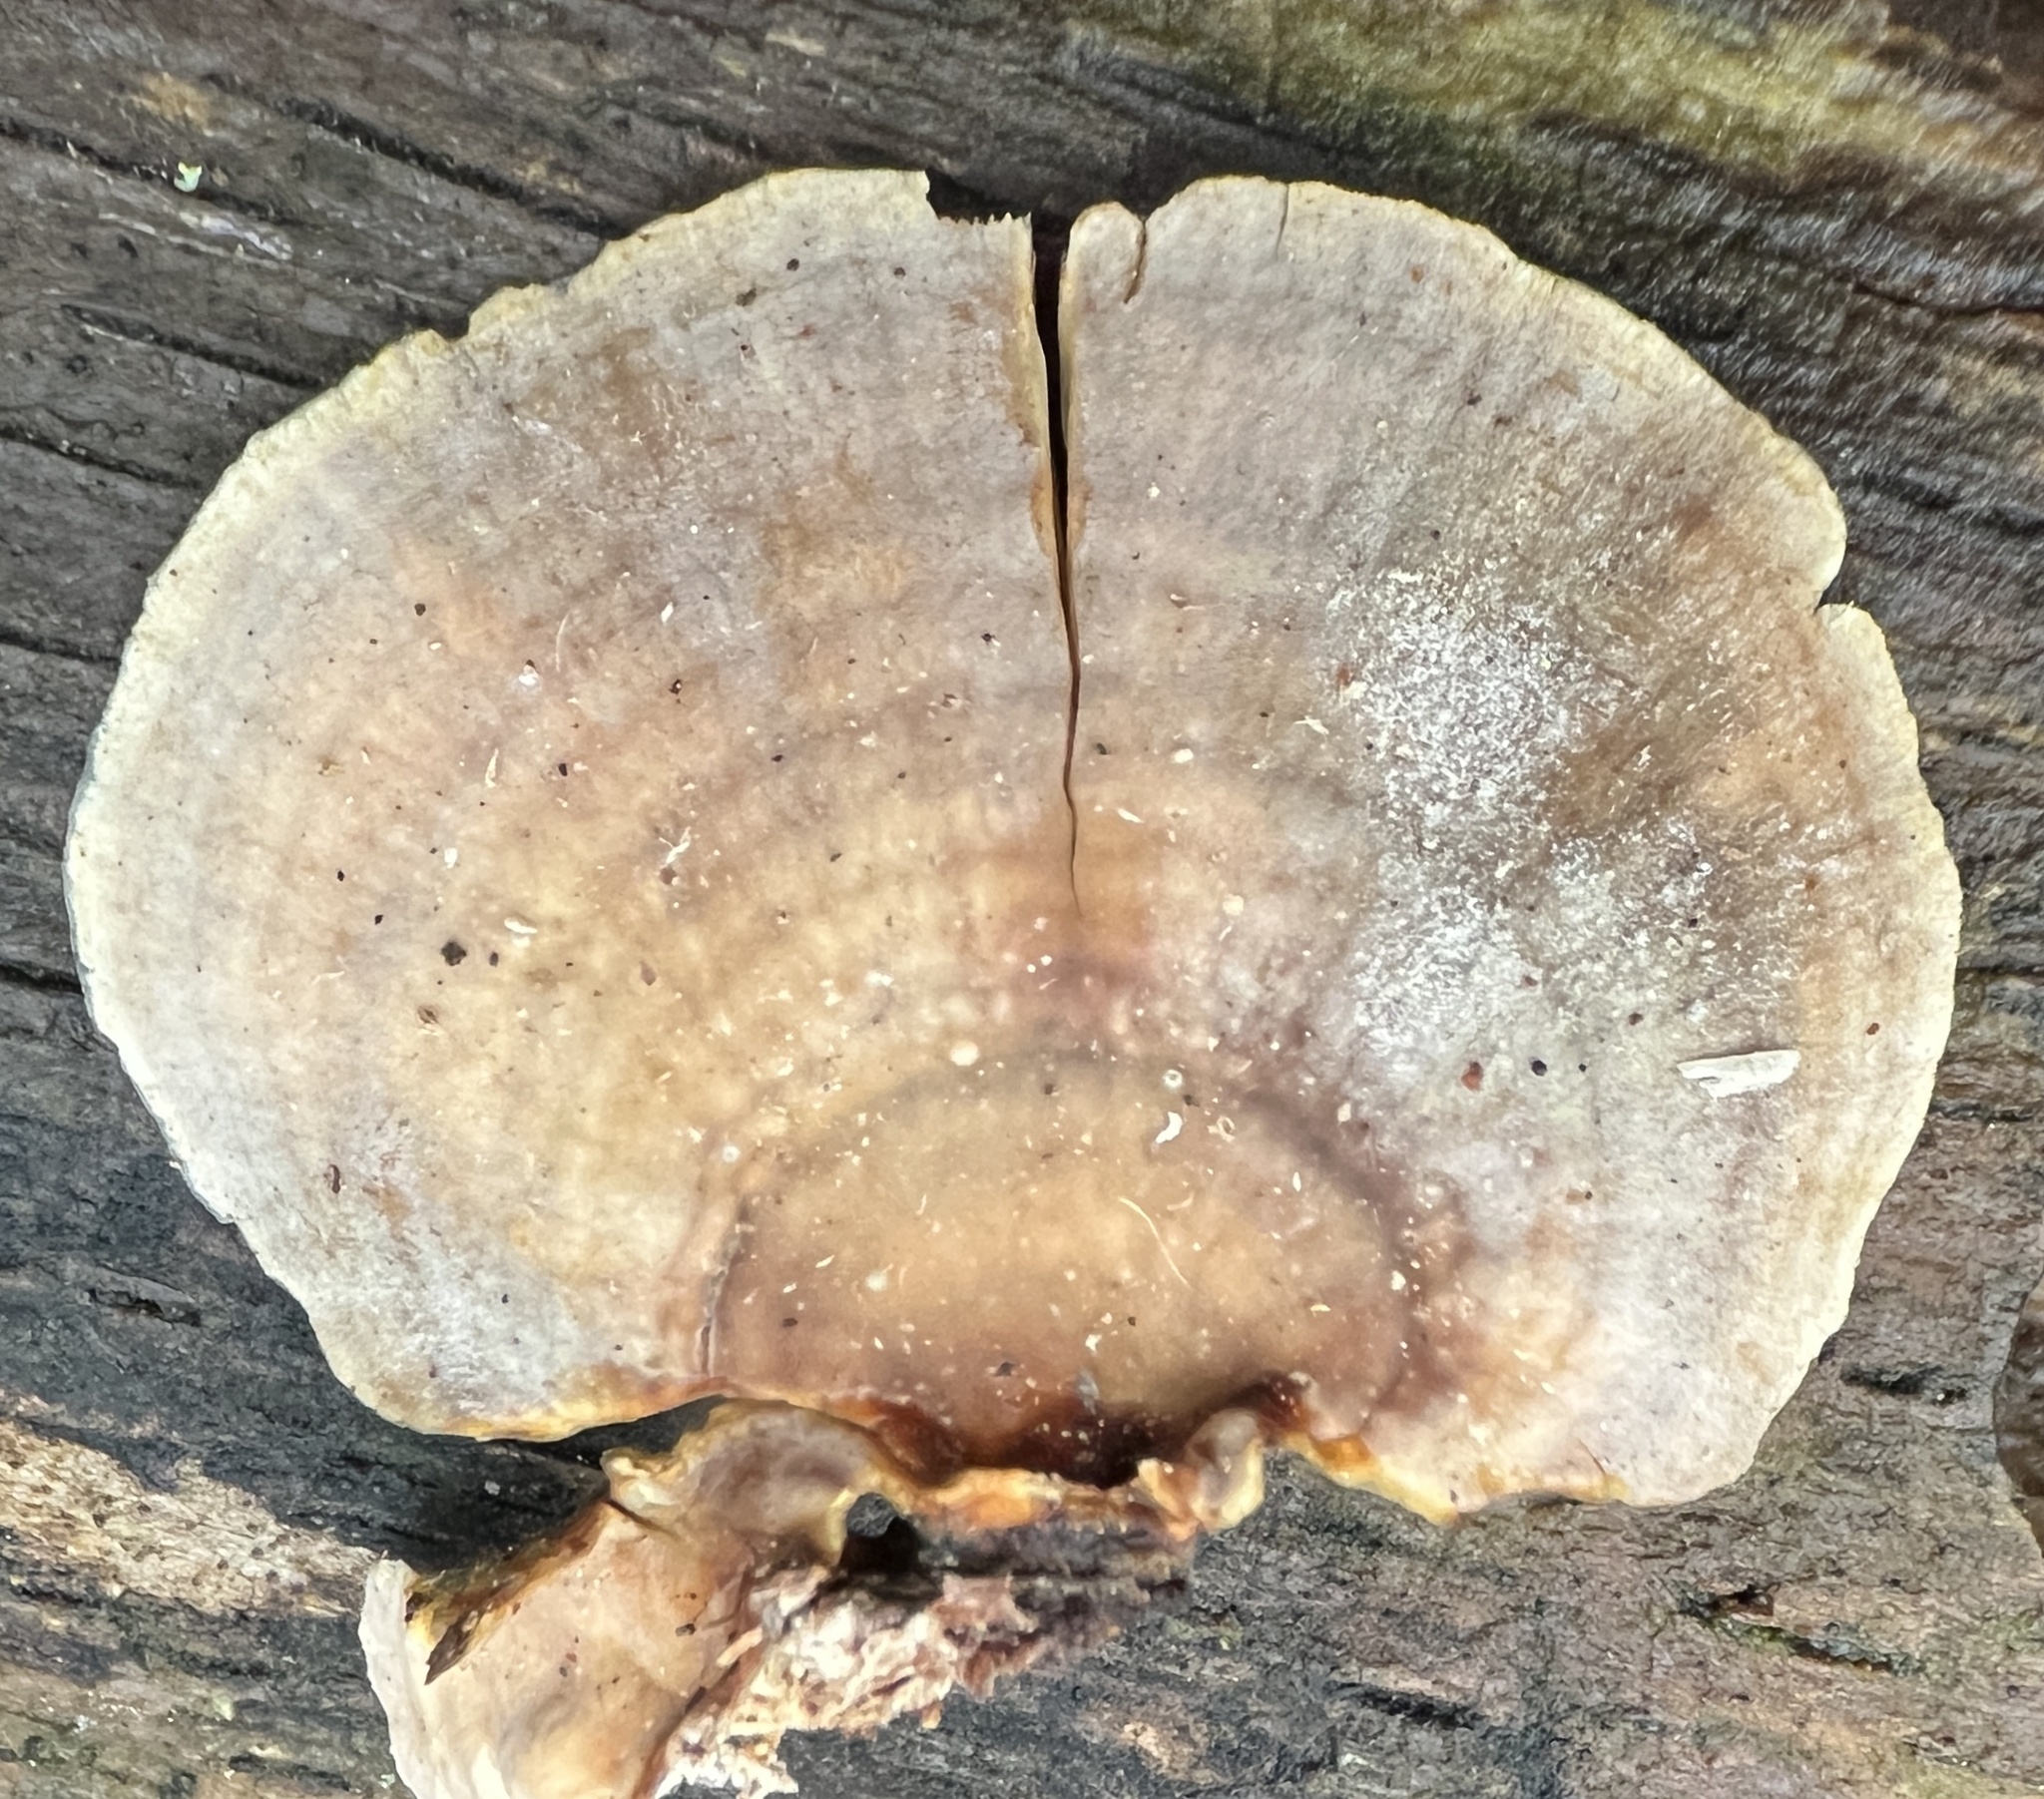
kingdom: Fungi
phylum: Basidiomycota
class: Agaricomycetes
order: Russulales
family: Stereaceae
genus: Stereum
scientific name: Stereum ostrea
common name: False turkeytail
